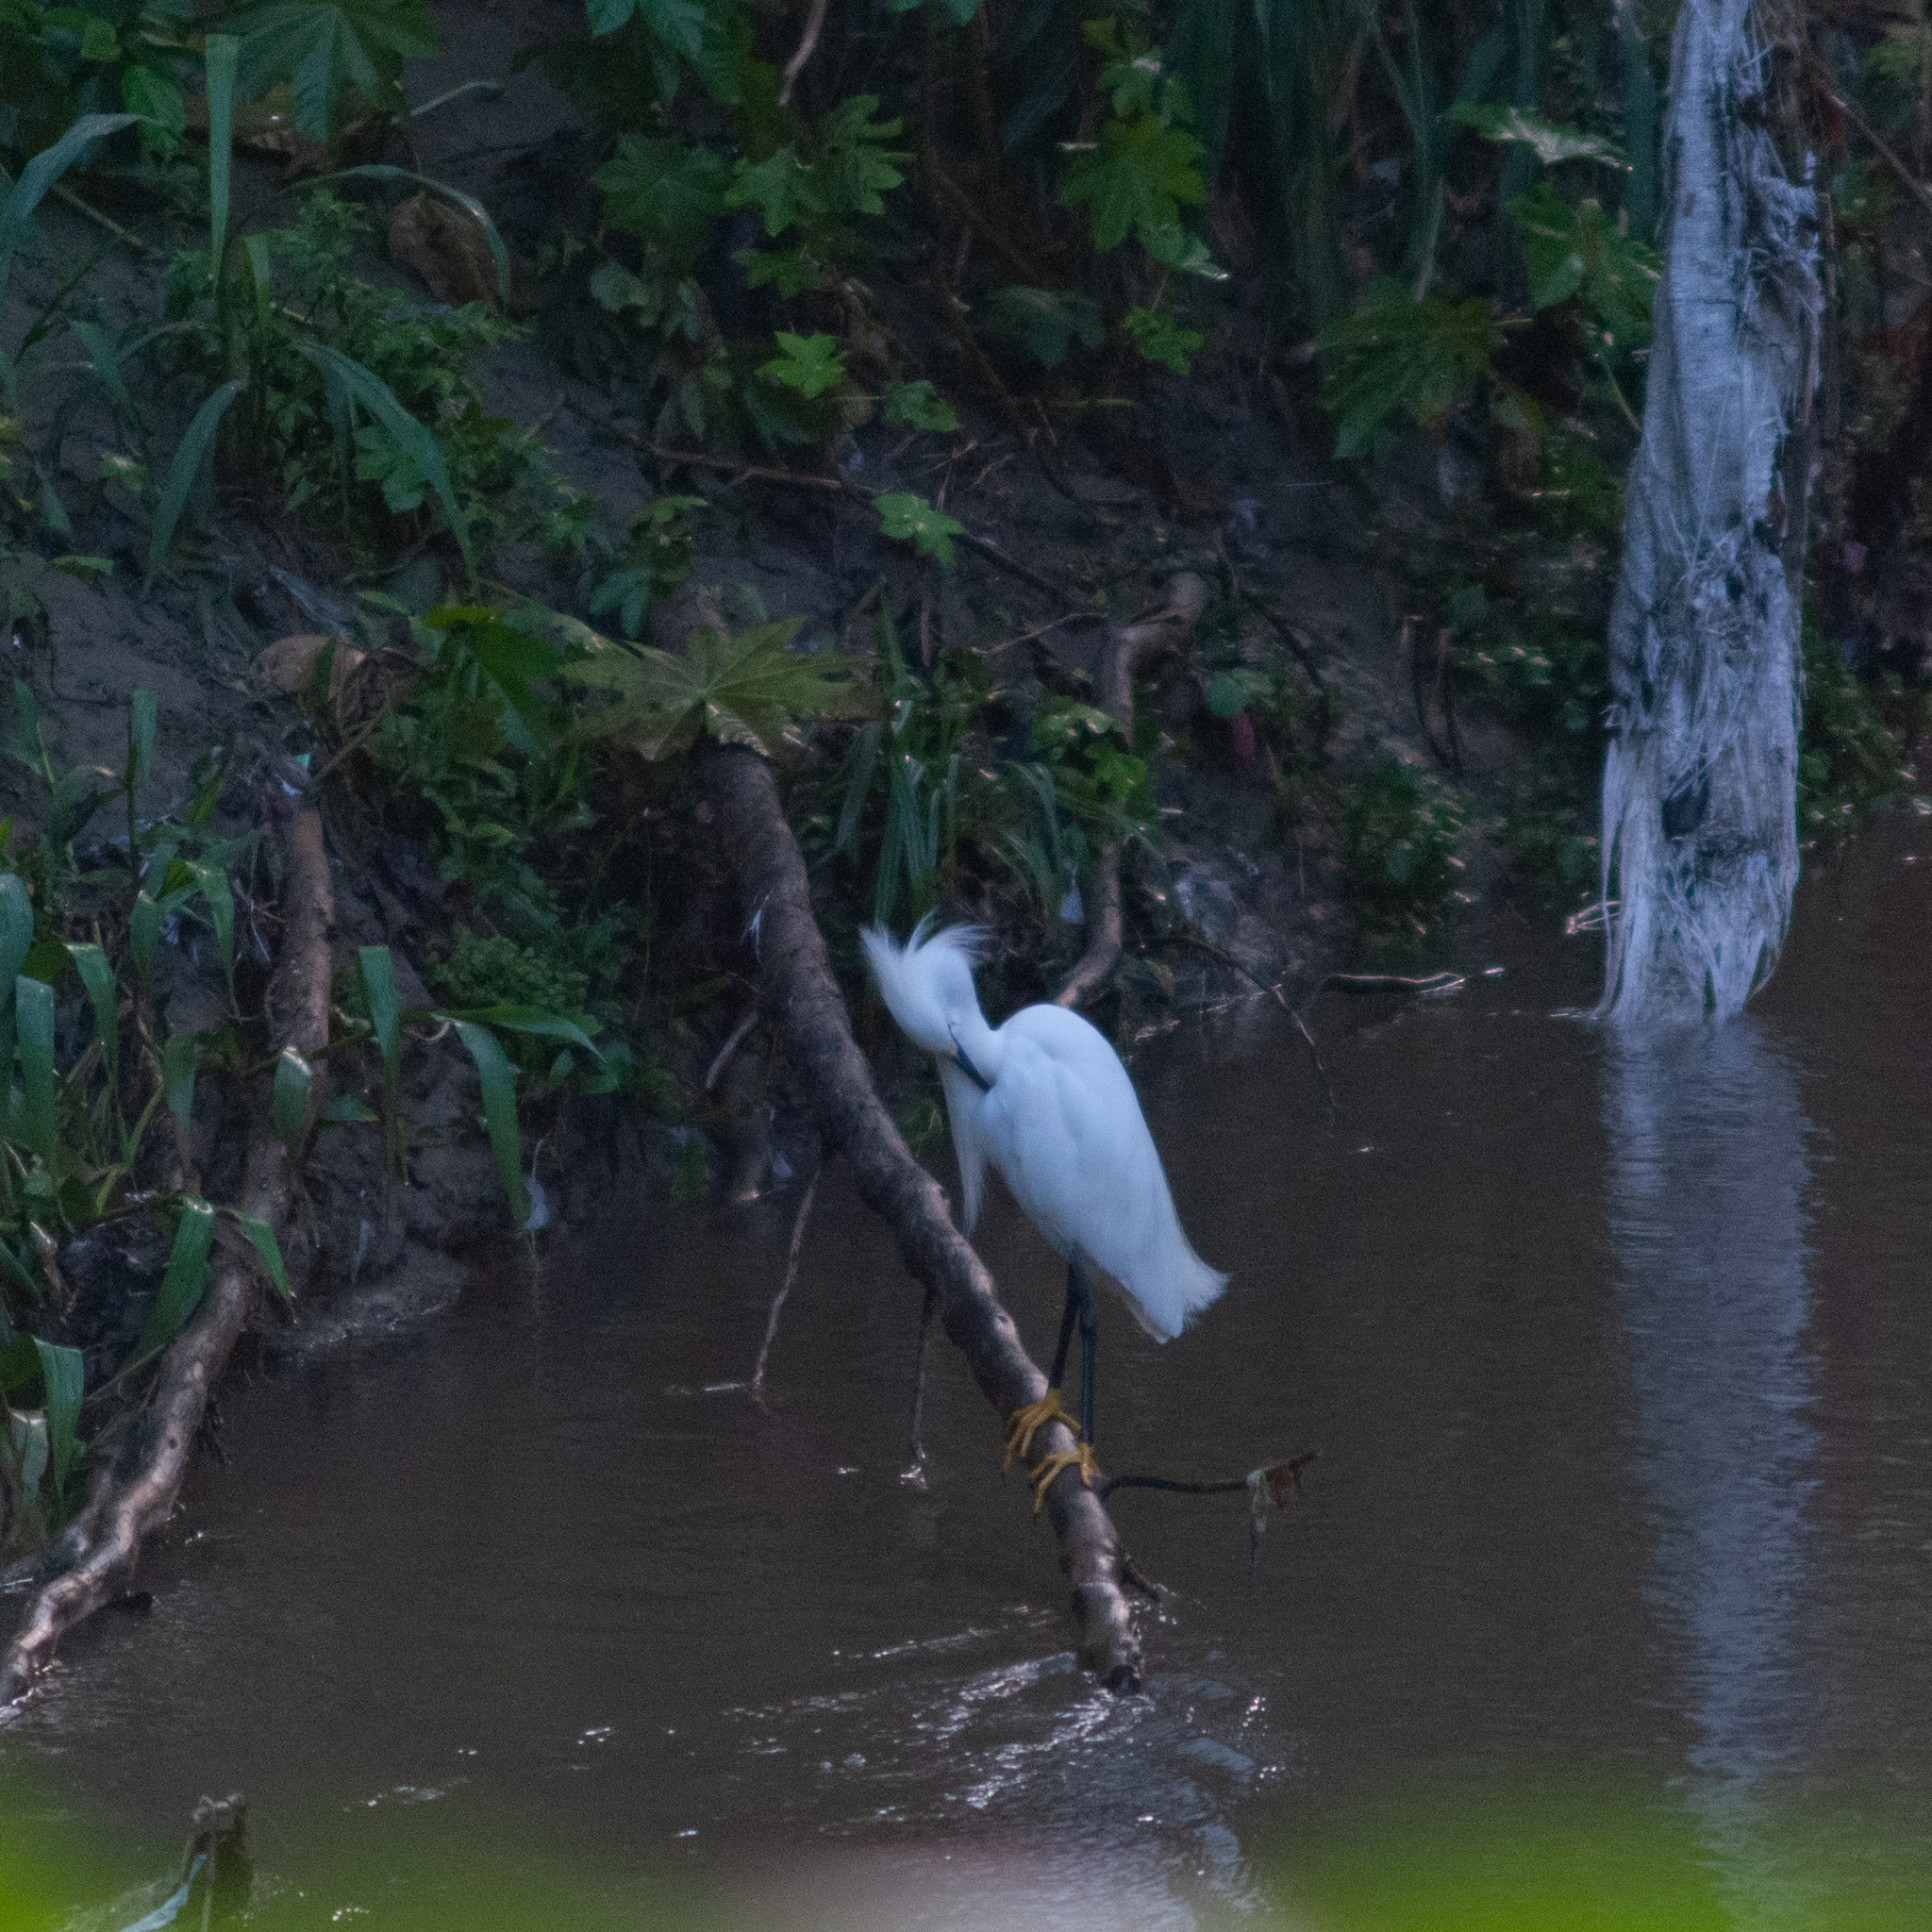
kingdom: Animalia
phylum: Chordata
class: Aves
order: Pelecaniformes
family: Ardeidae
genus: Egretta
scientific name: Egretta thula
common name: Snowy egret
